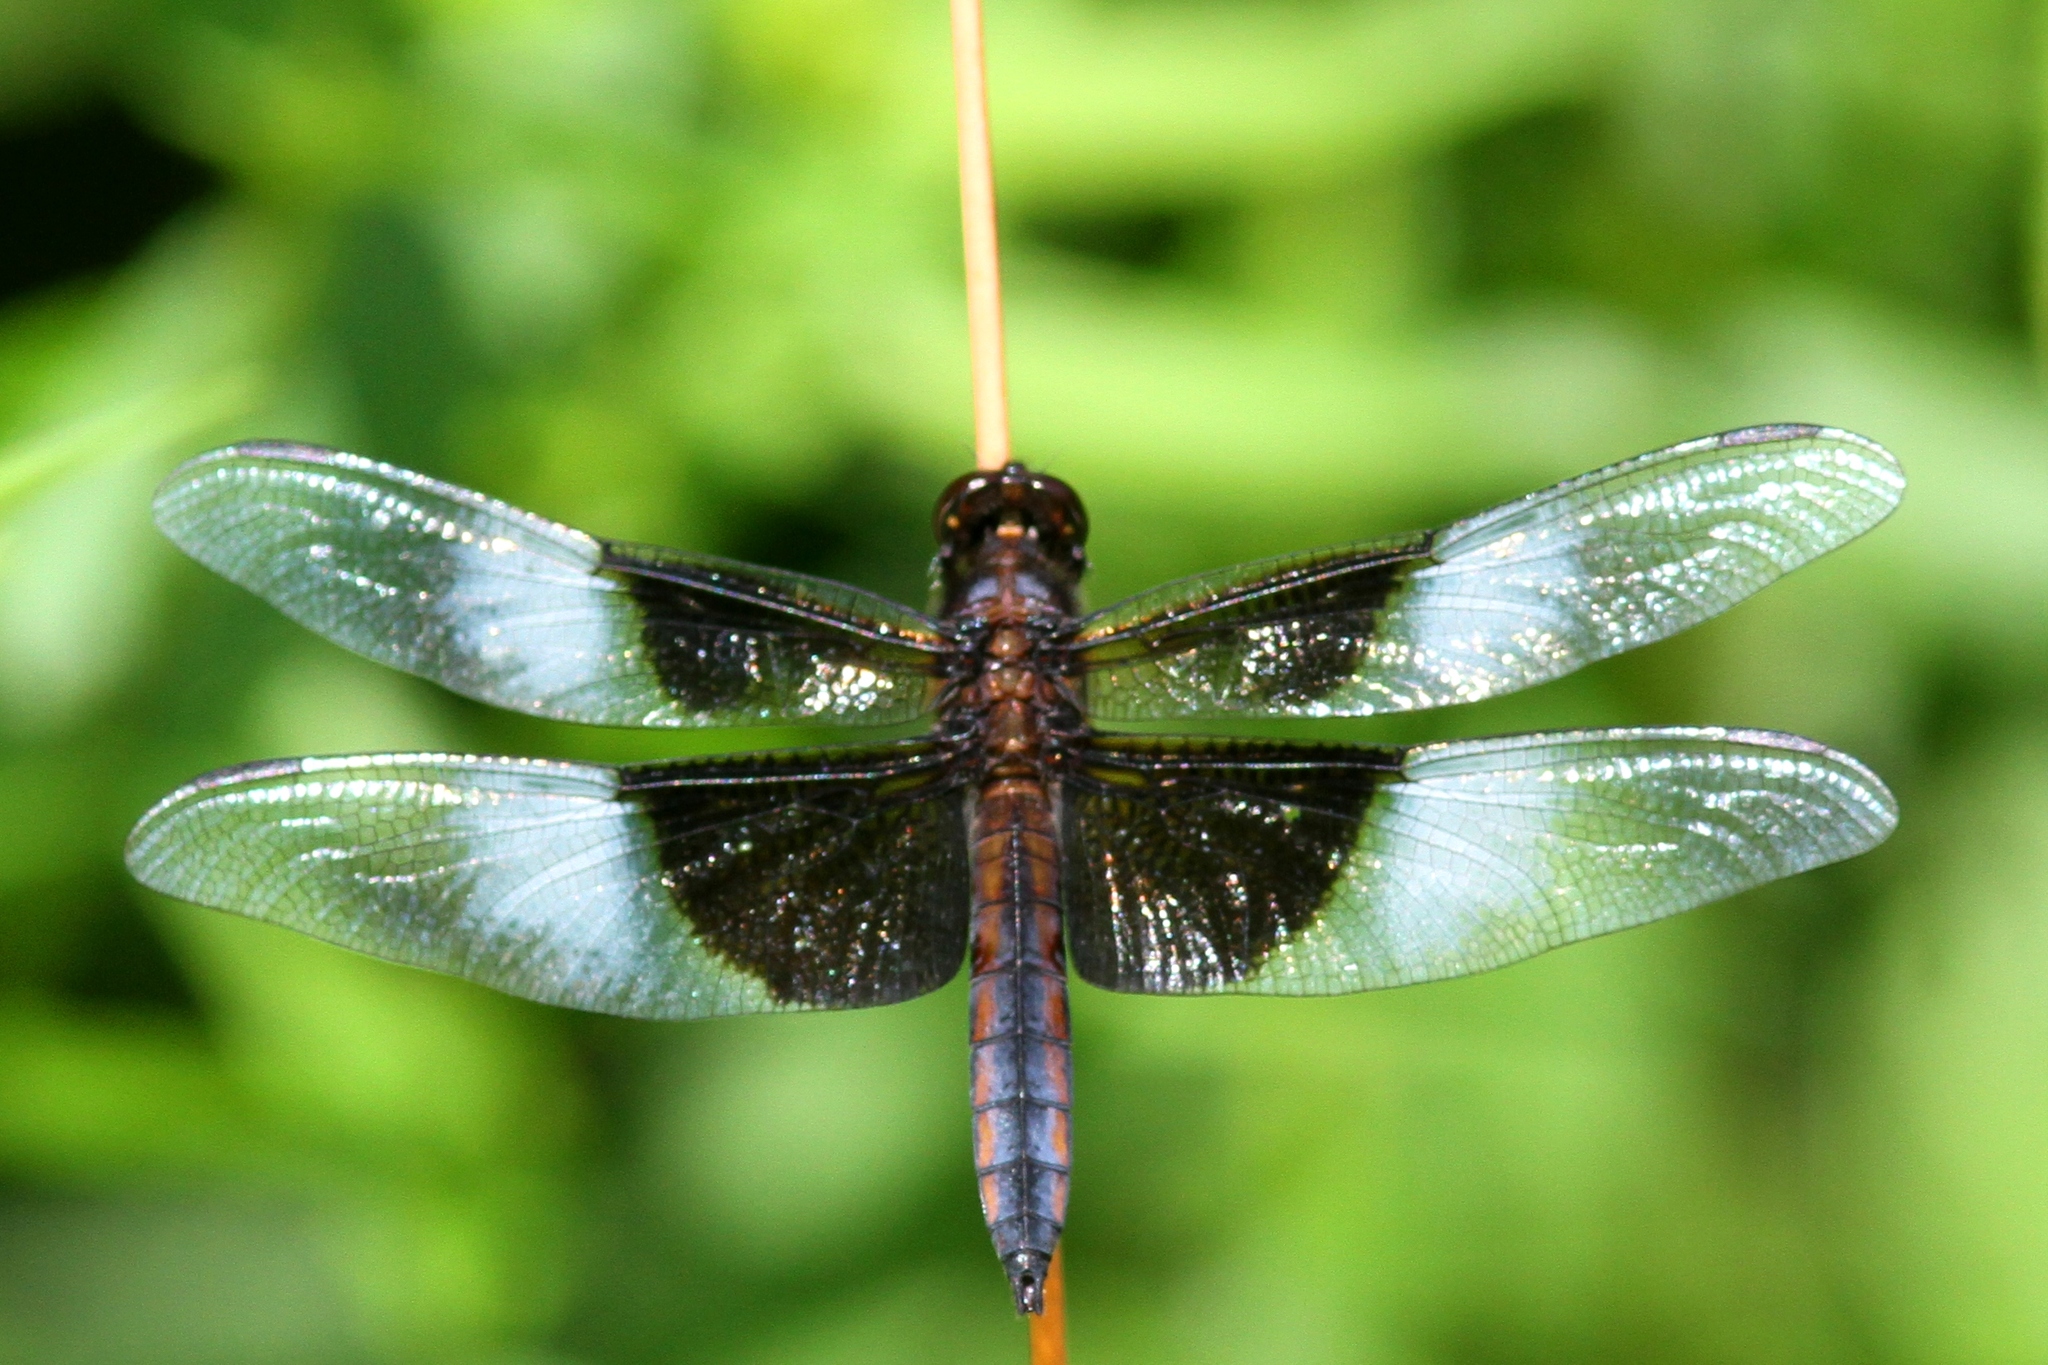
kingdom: Animalia
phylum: Arthropoda
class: Insecta
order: Odonata
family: Libellulidae
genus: Libellula
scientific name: Libellula luctuosa
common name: Widow skimmer
